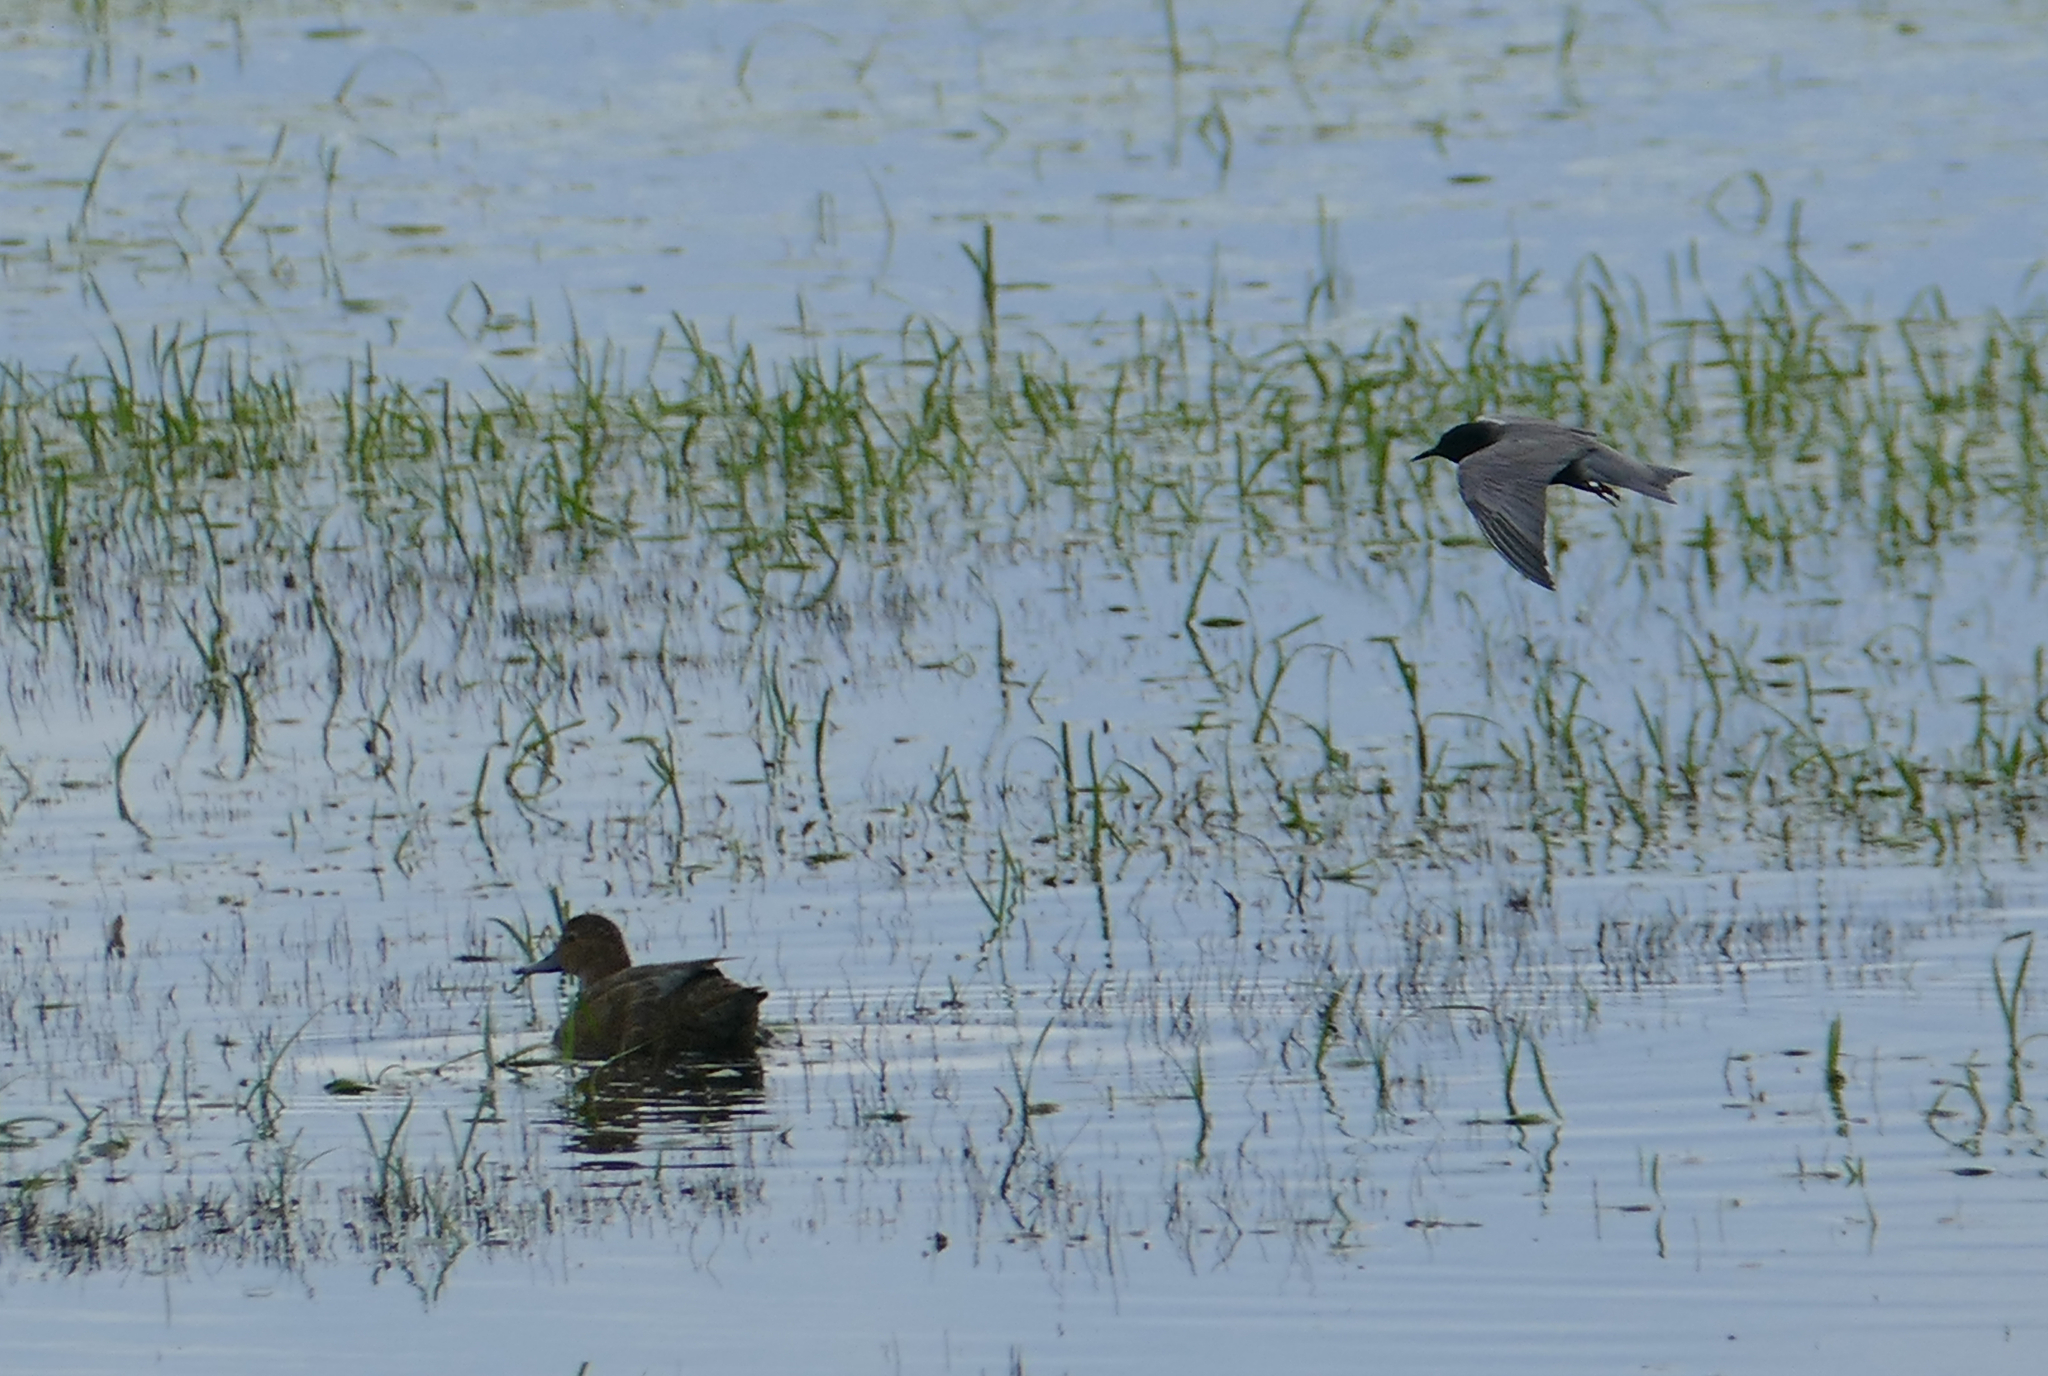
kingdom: Animalia
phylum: Chordata
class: Aves
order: Anseriformes
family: Anatidae
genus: Aythya
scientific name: Aythya americana
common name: Redhead
